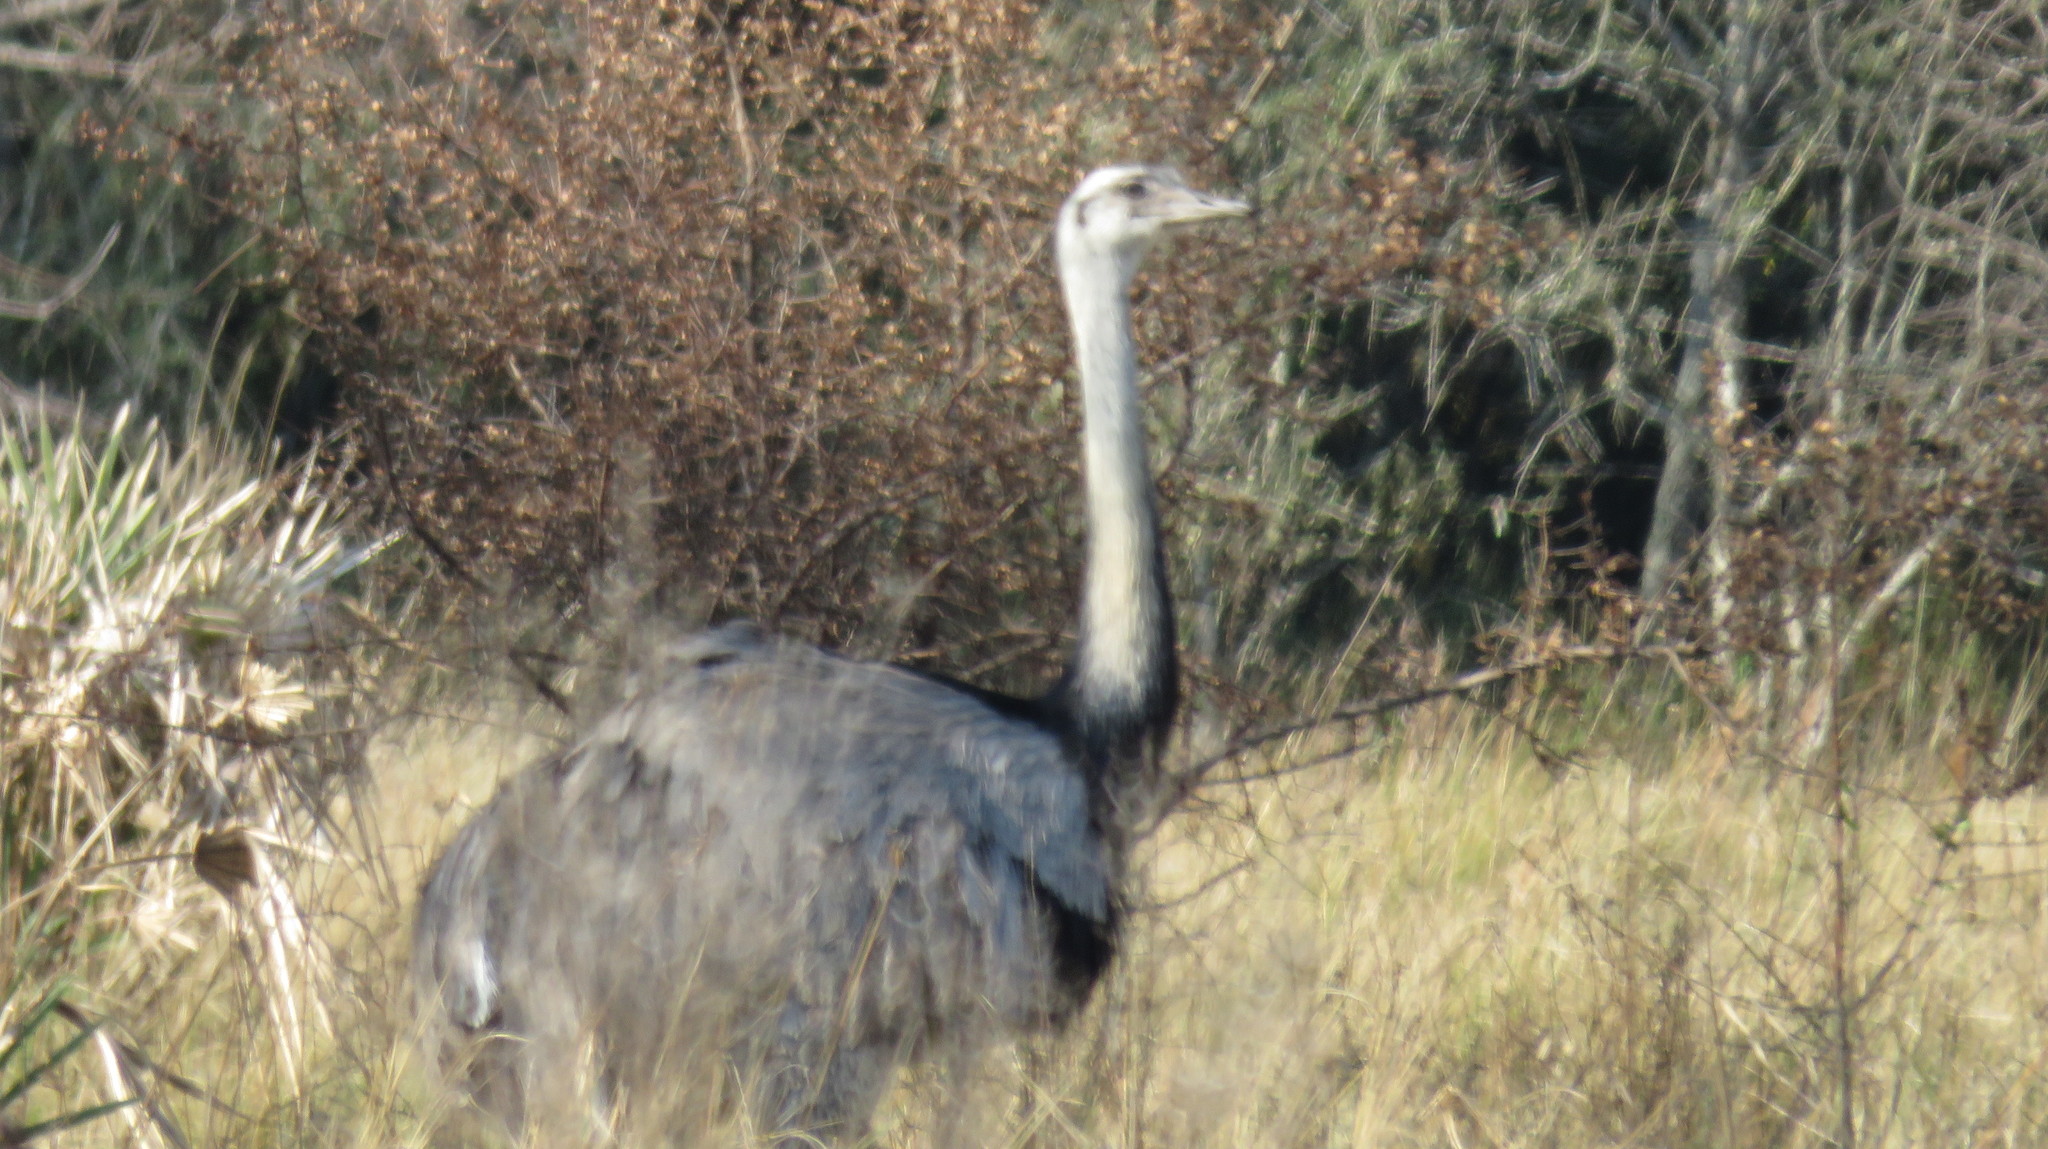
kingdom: Animalia
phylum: Chordata
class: Aves
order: Rheiformes
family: Rheidae
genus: Rhea
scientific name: Rhea americana
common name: Greater rhea
